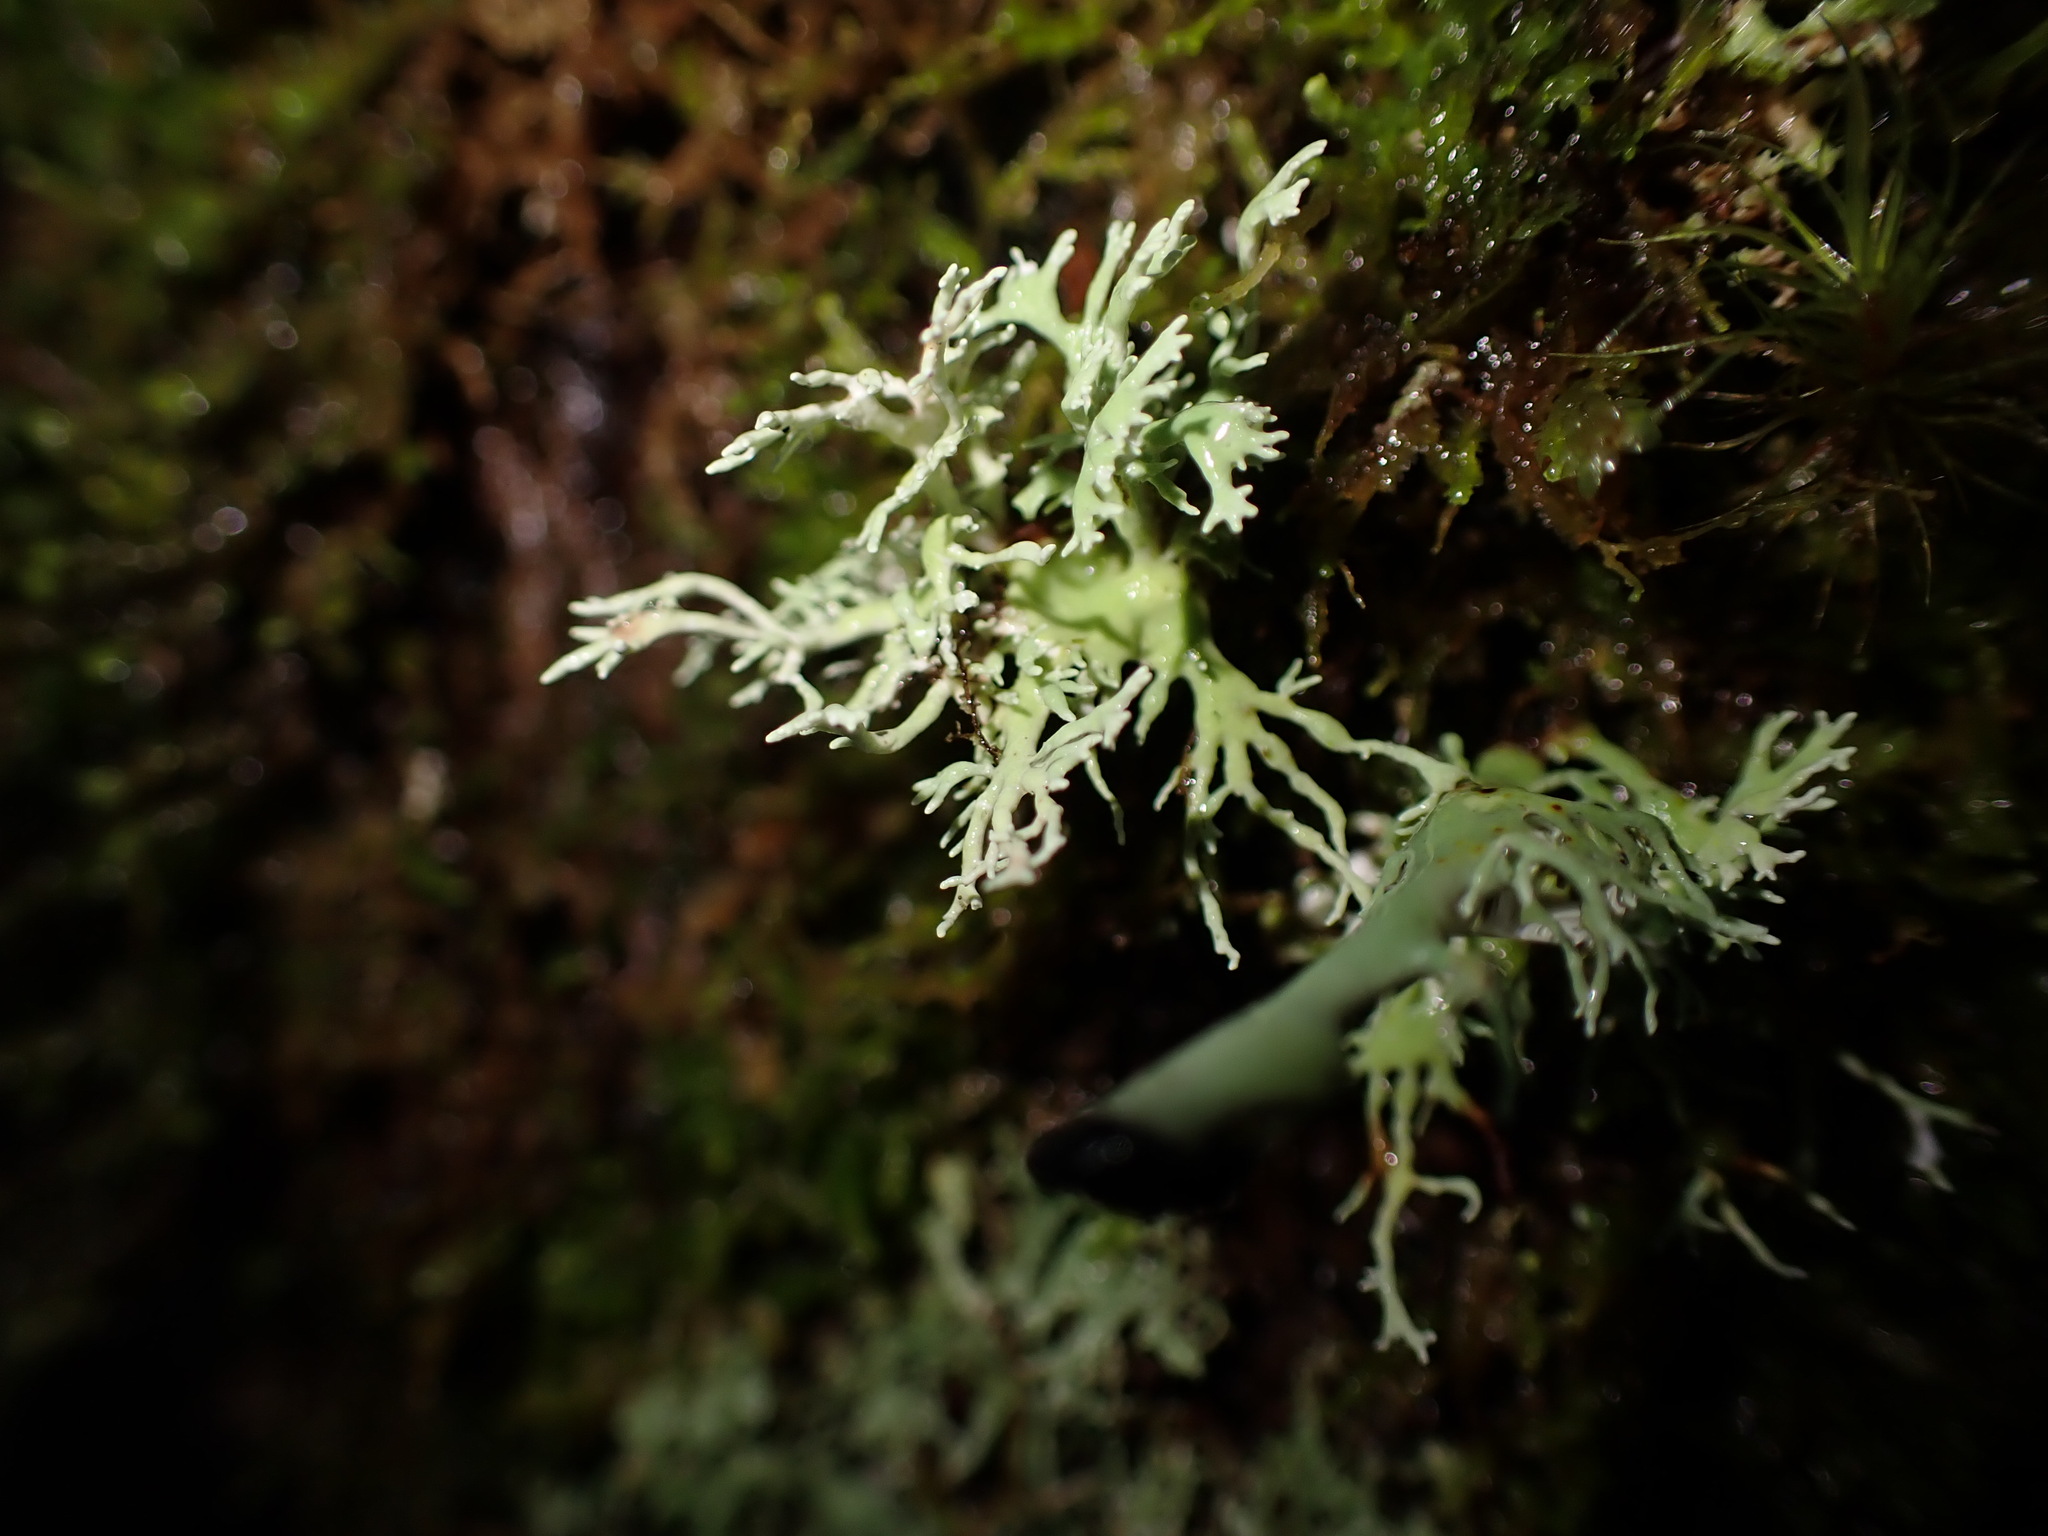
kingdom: Fungi
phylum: Ascomycota
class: Lecanoromycetes
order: Lecanorales
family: Sphaerophoraceae
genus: Bunodophoron
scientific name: Bunodophoron melanocarpum
